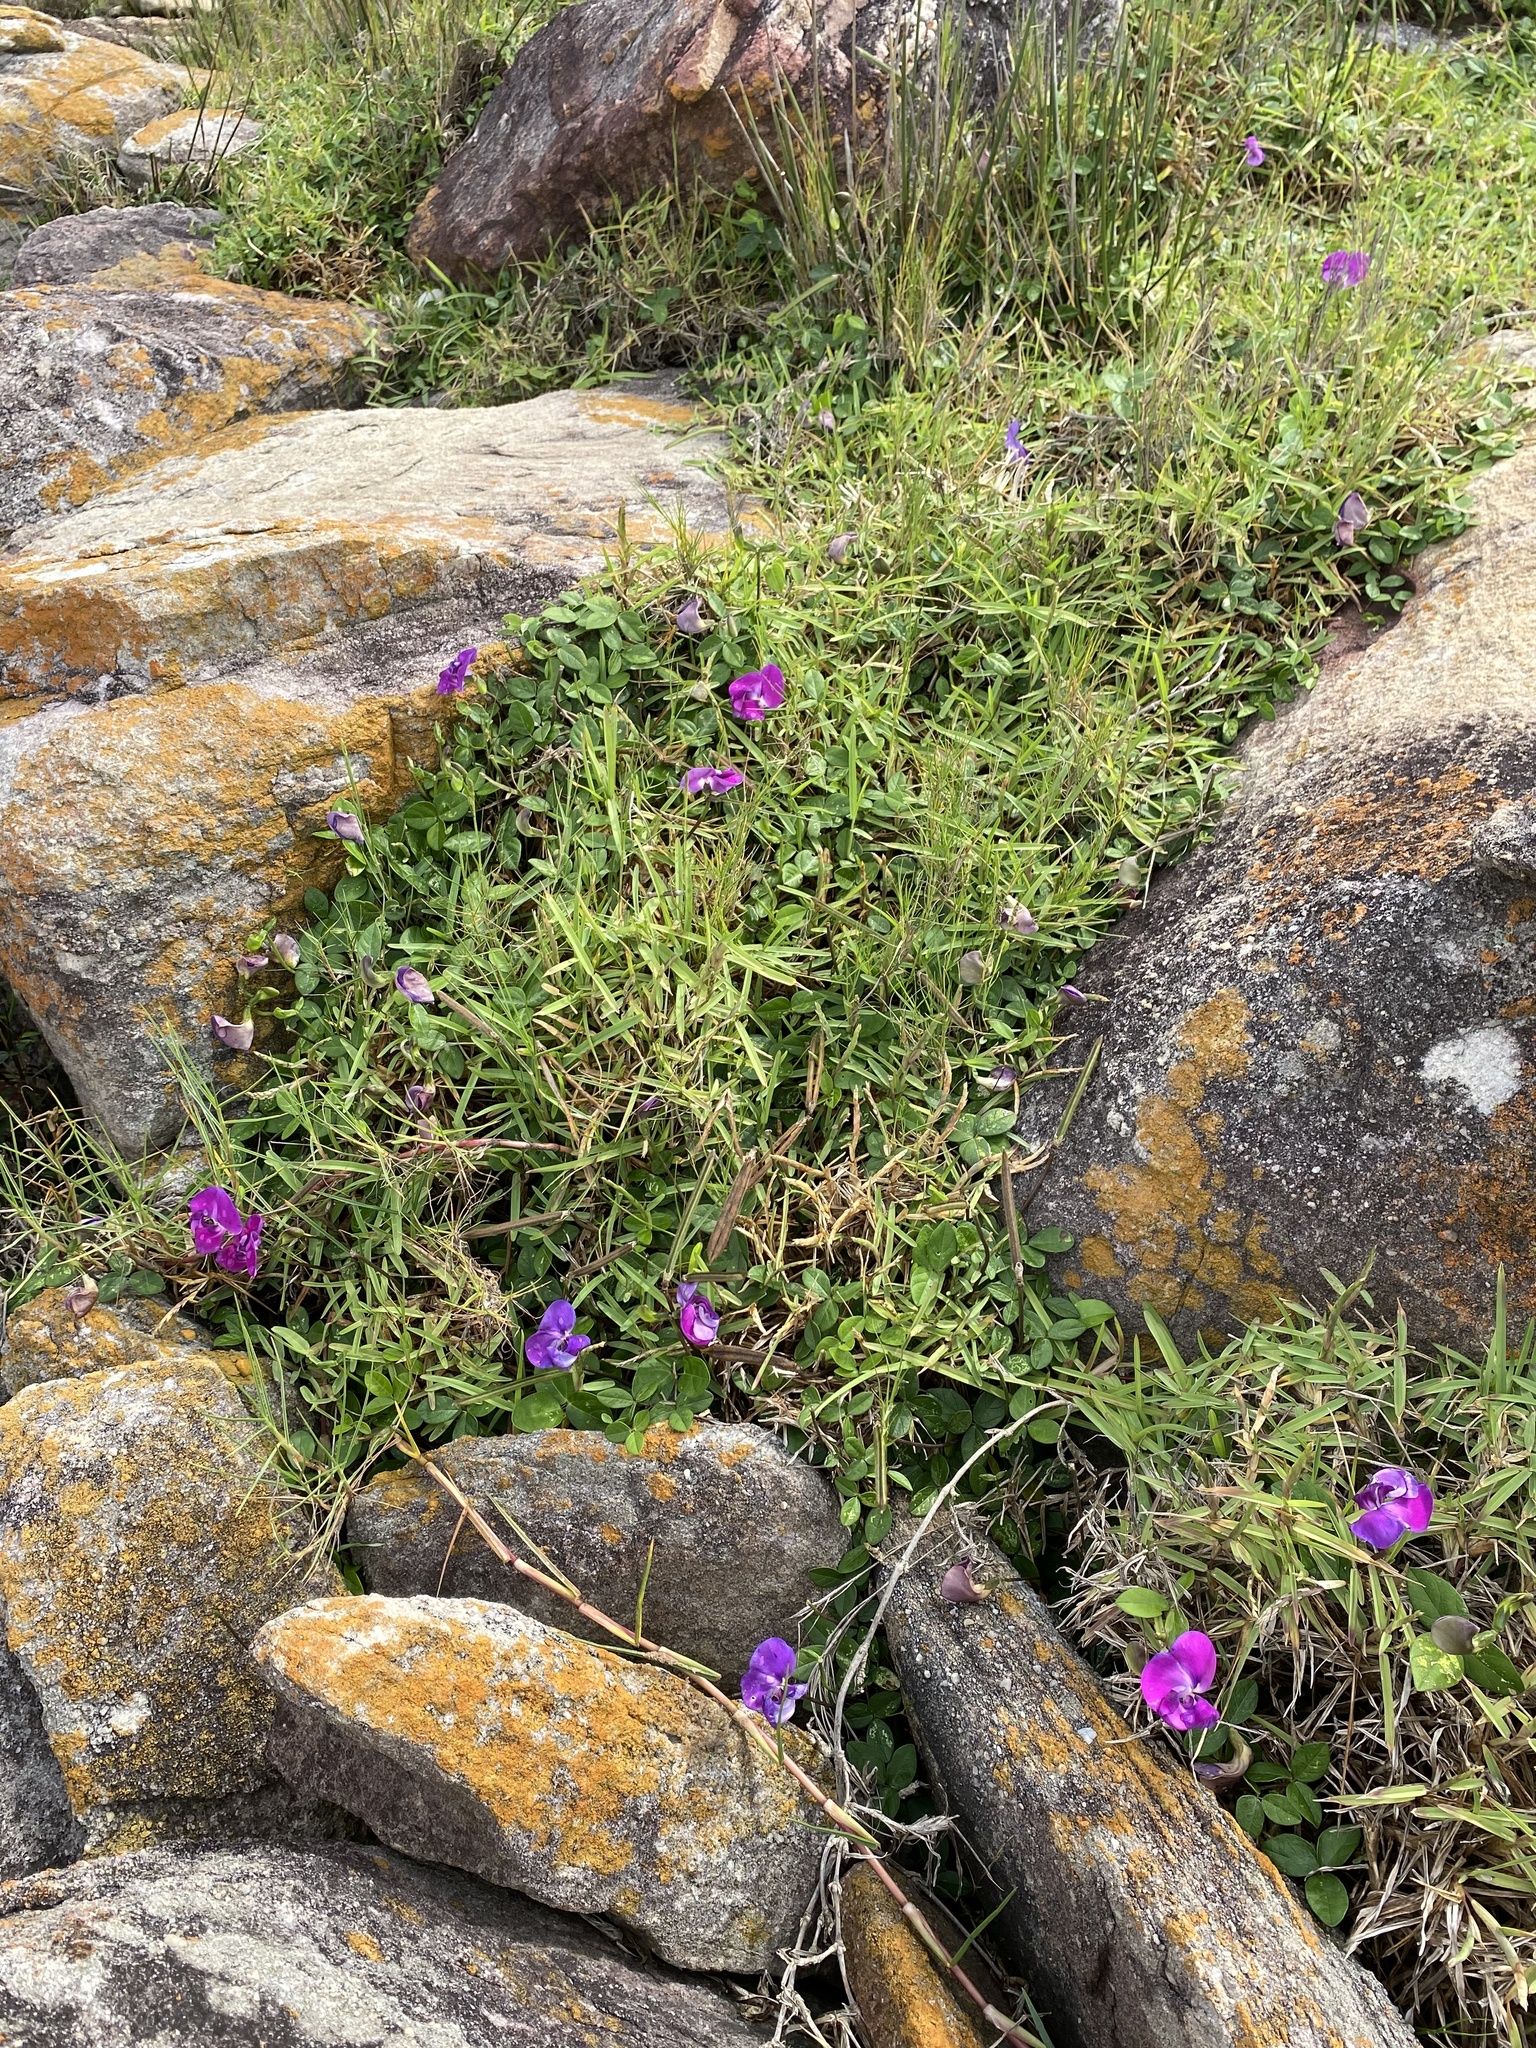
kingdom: Plantae
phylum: Tracheophyta
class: Magnoliopsida
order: Fabales
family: Fabaceae
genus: Vigna
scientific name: Vigna vexillata
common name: Zombi pea
